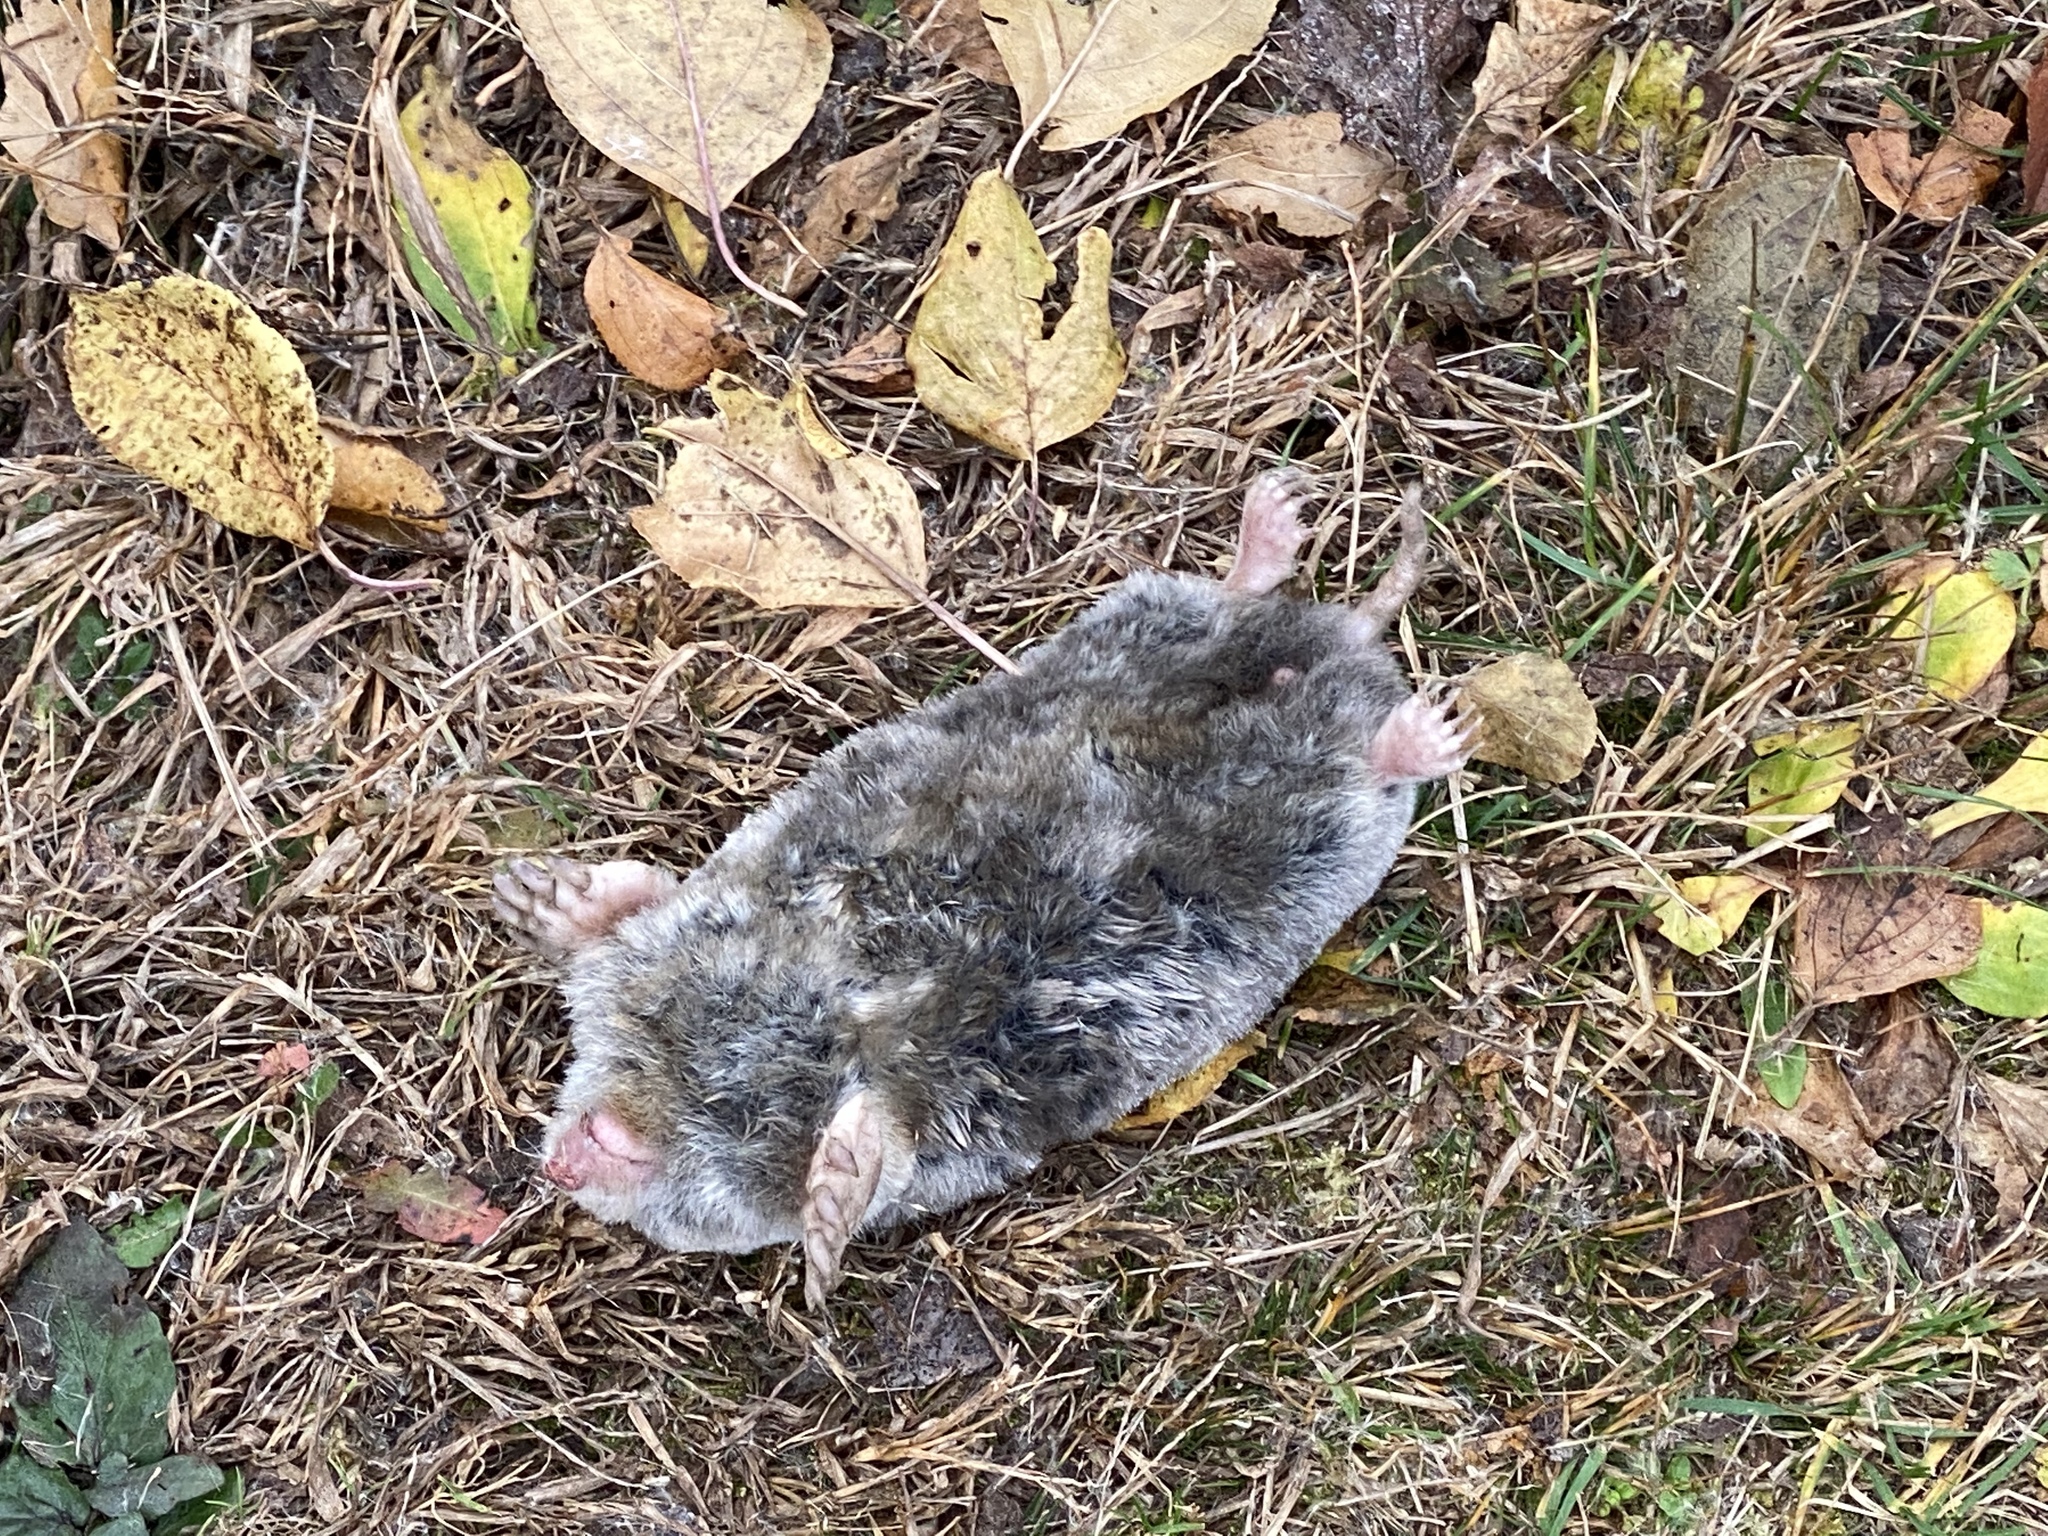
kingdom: Animalia
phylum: Chordata
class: Mammalia
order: Soricomorpha
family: Talpidae
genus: Scalopus
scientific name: Scalopus aquaticus
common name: Eastern mole
